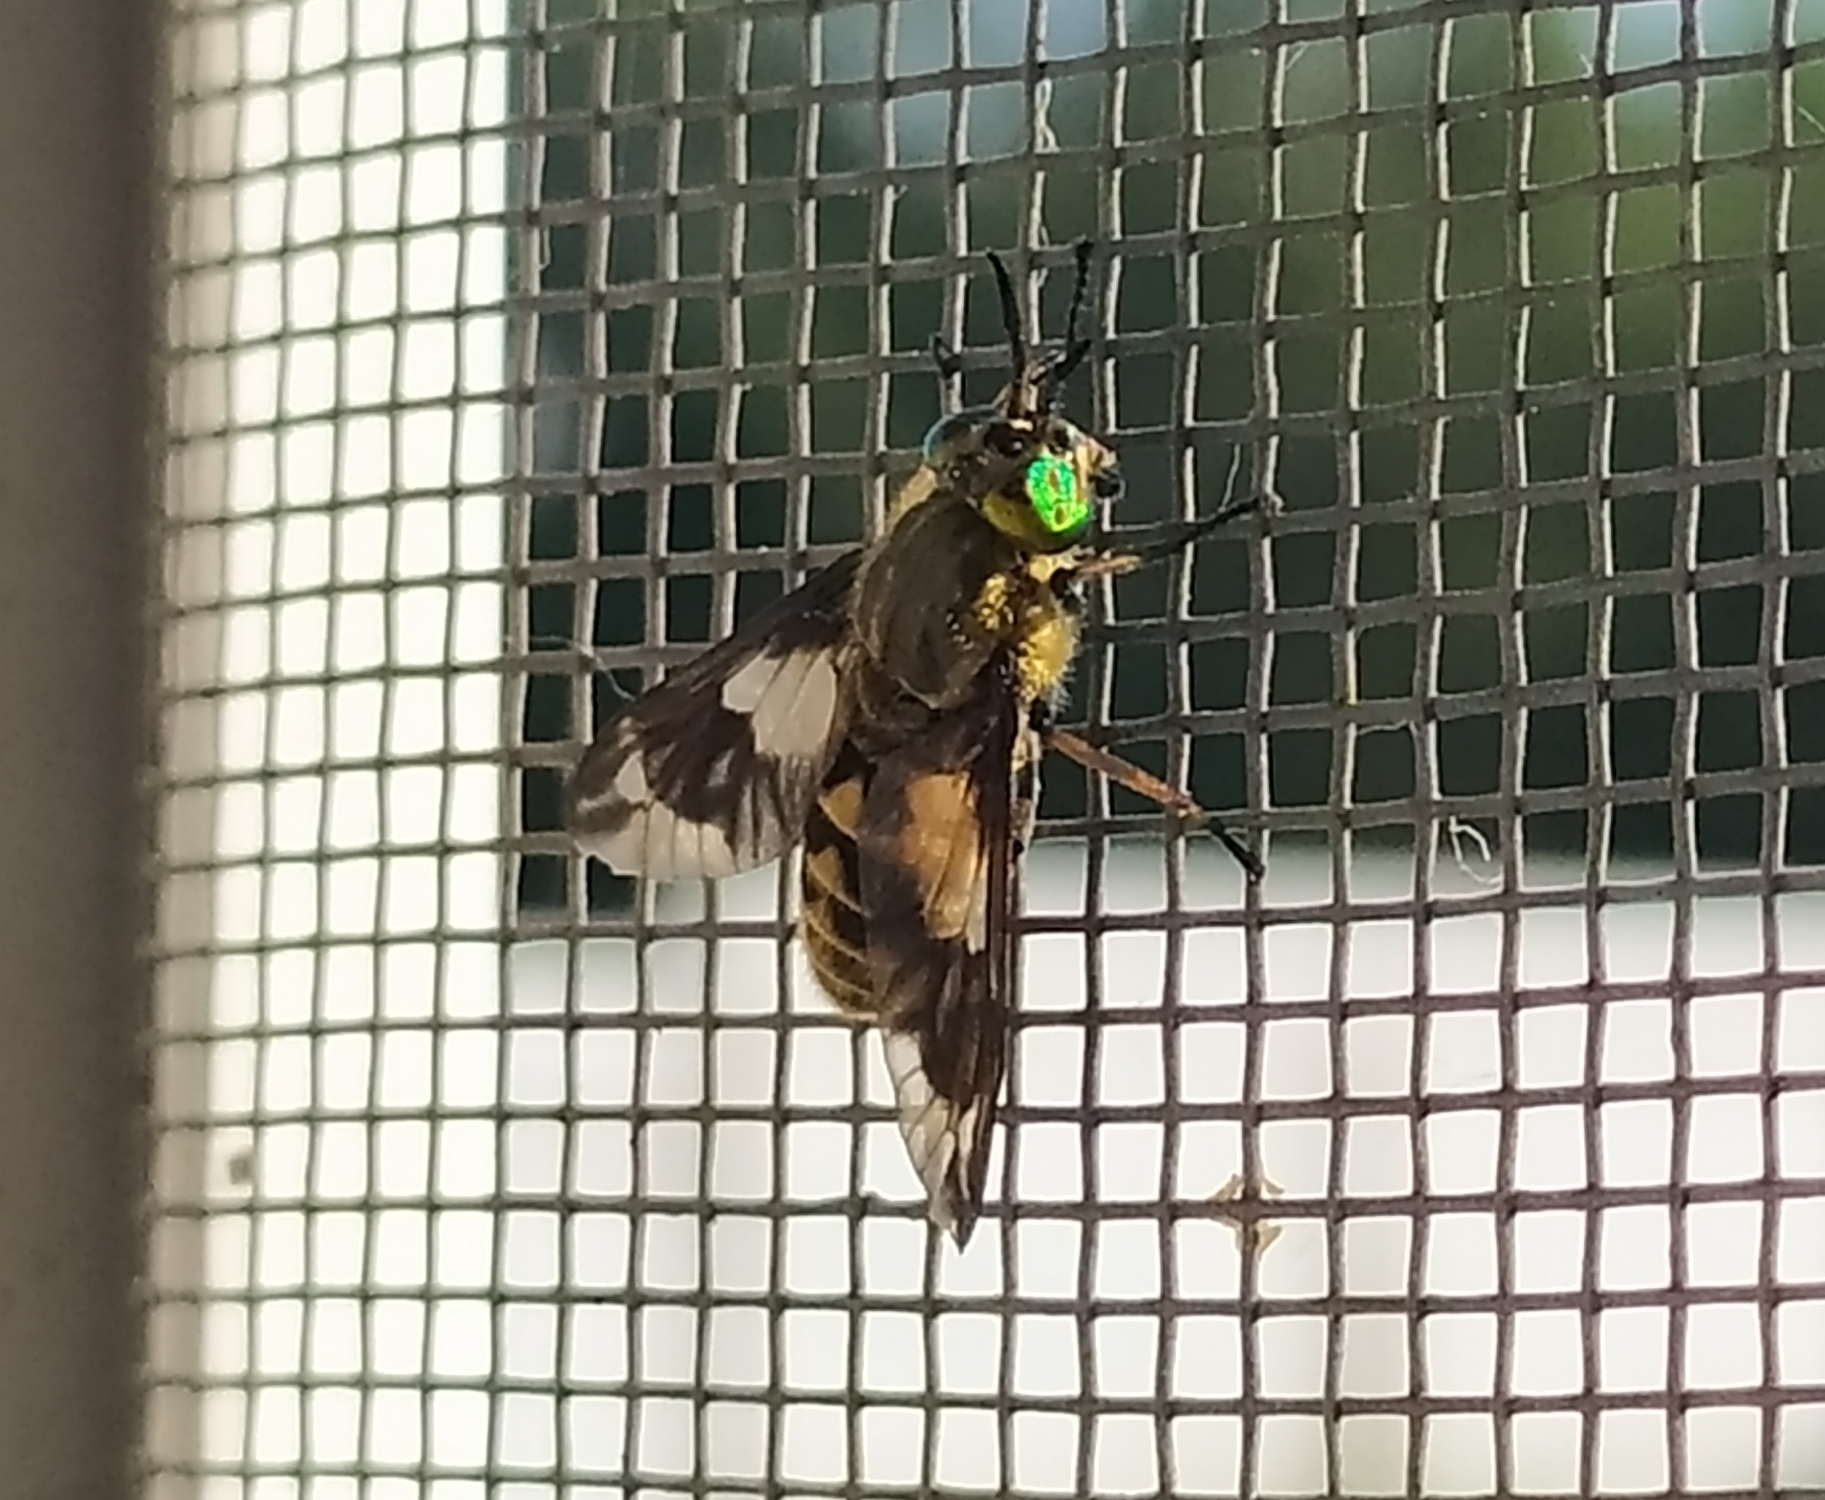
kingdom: Animalia
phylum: Arthropoda
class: Insecta
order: Diptera
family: Tabanidae
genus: Chrysops
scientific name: Chrysops relictus
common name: Twin-lobed deerfly
